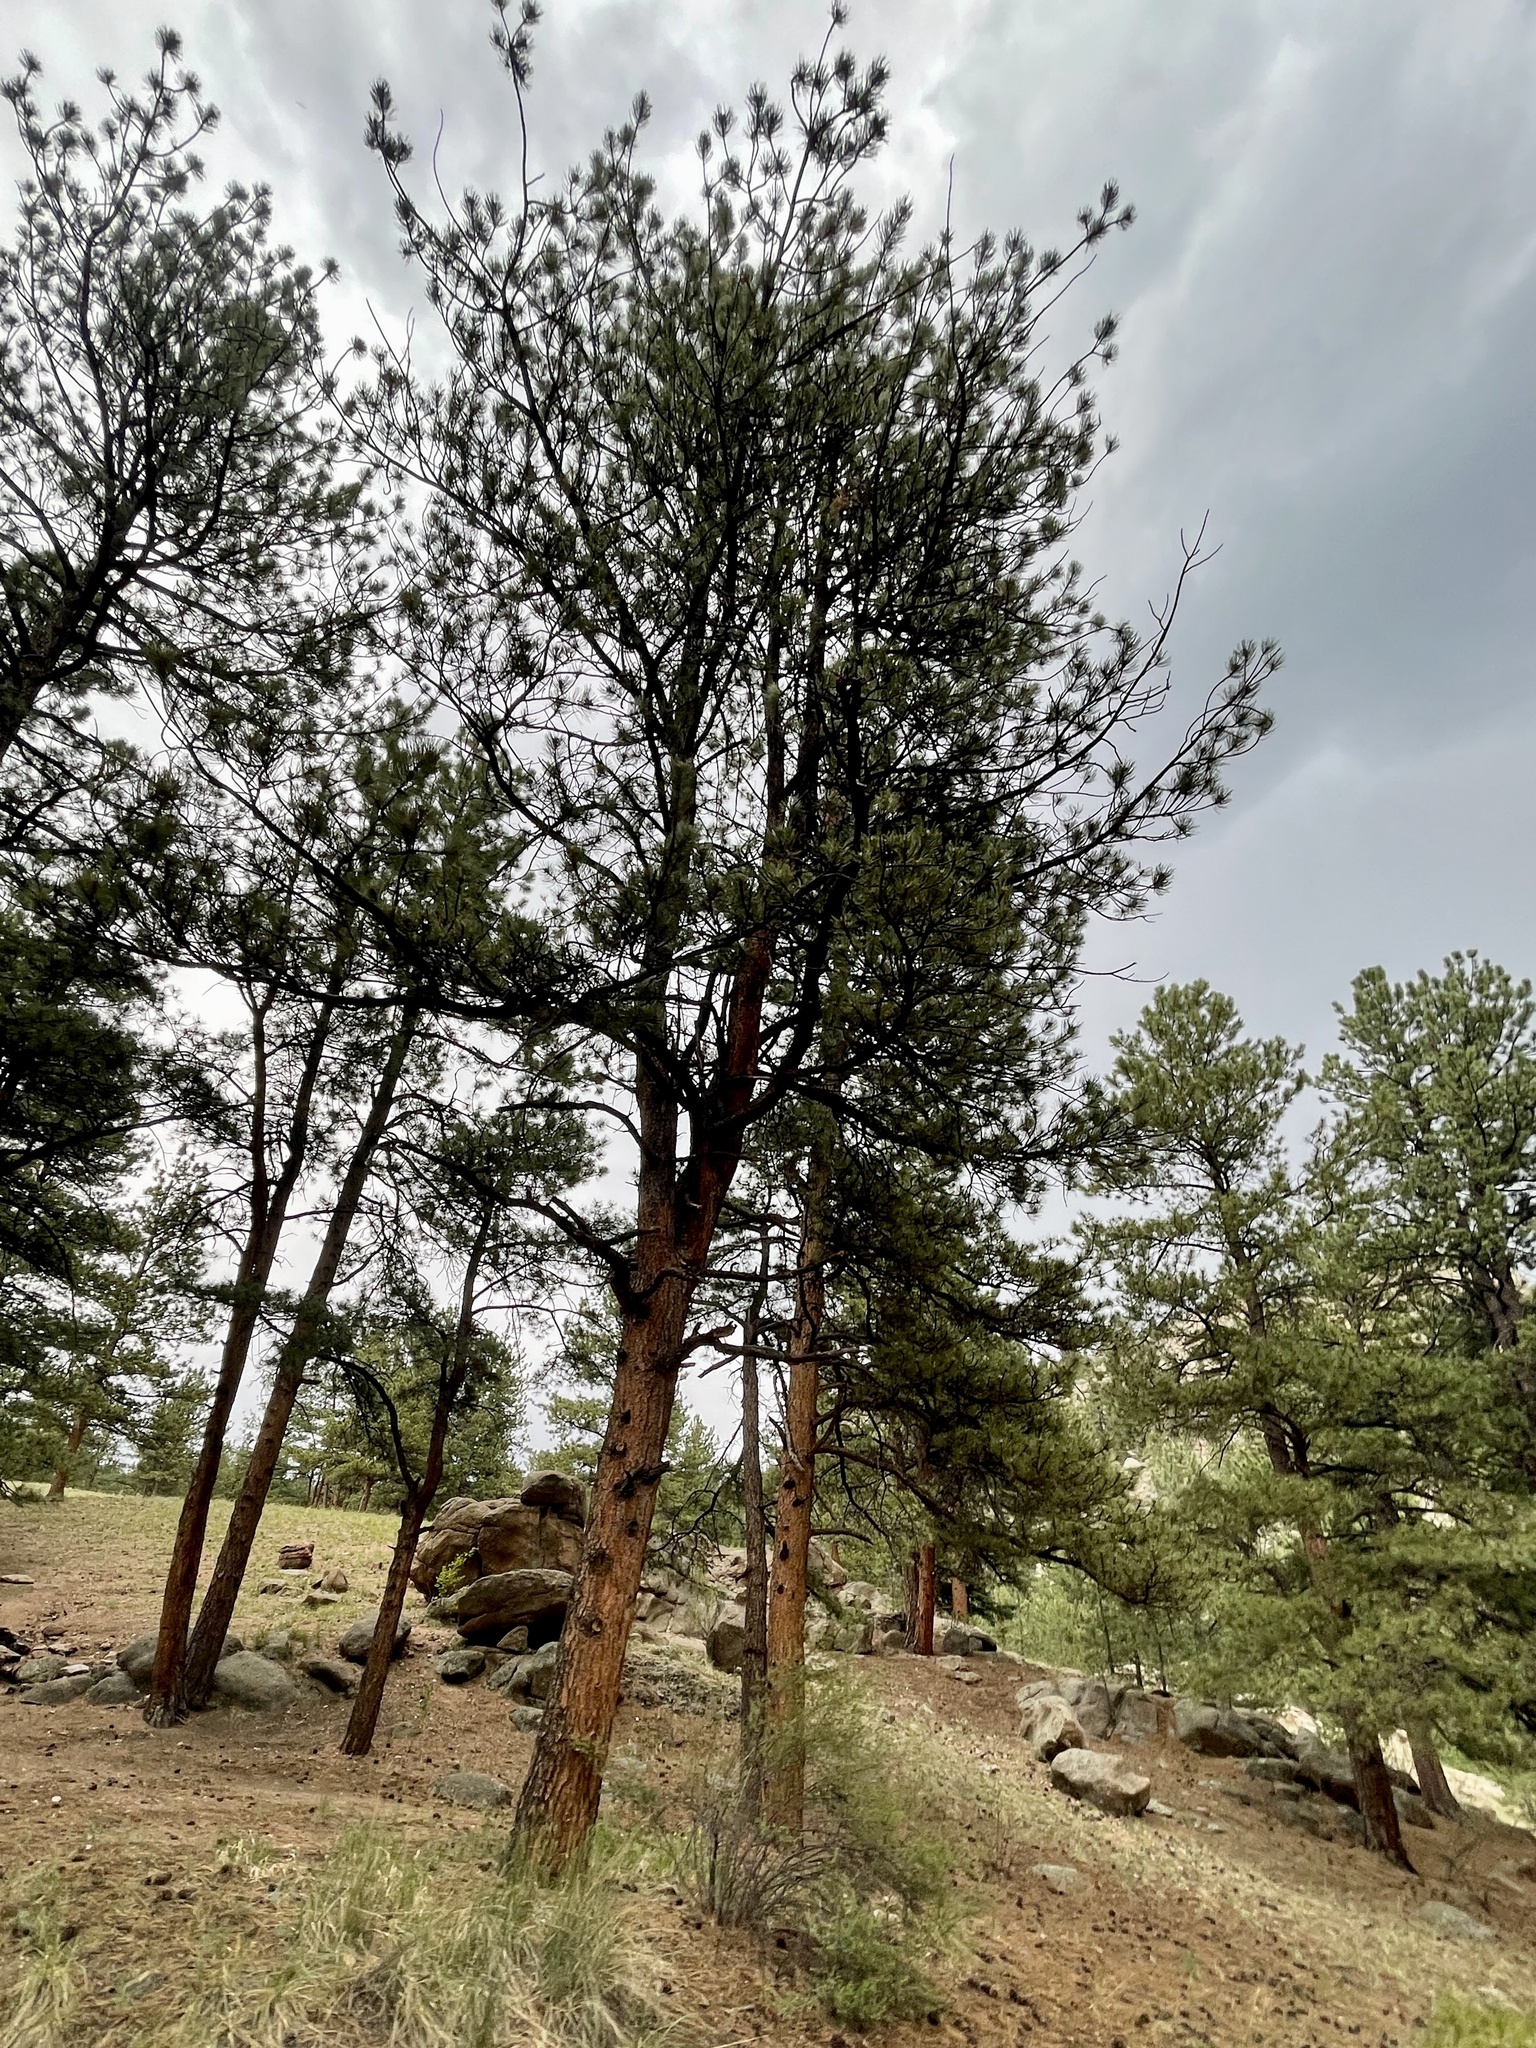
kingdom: Plantae
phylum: Tracheophyta
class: Pinopsida
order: Pinales
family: Pinaceae
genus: Pinus
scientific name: Pinus ponderosa
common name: Western yellow-pine
